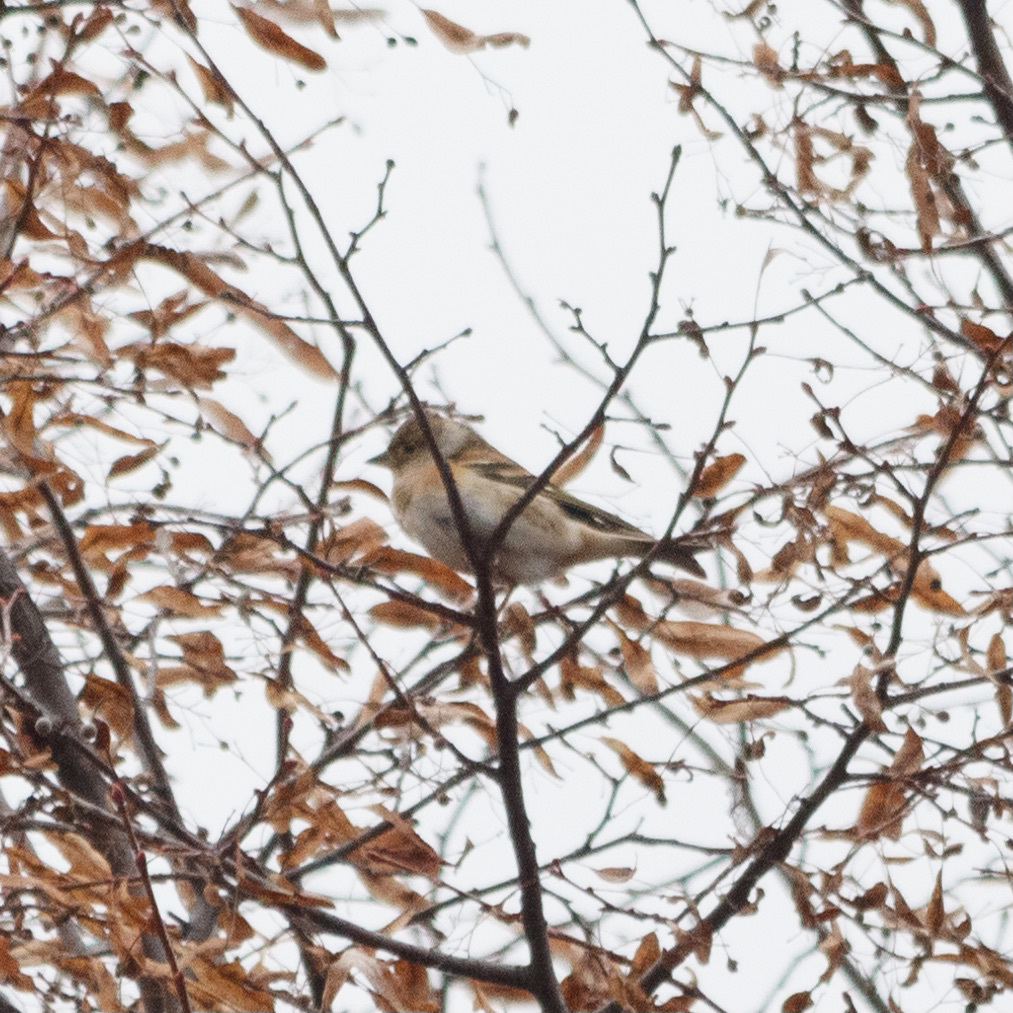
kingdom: Animalia
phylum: Chordata
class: Aves
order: Passeriformes
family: Fringillidae
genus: Fringilla
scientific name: Fringilla montifringilla
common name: Brambling
